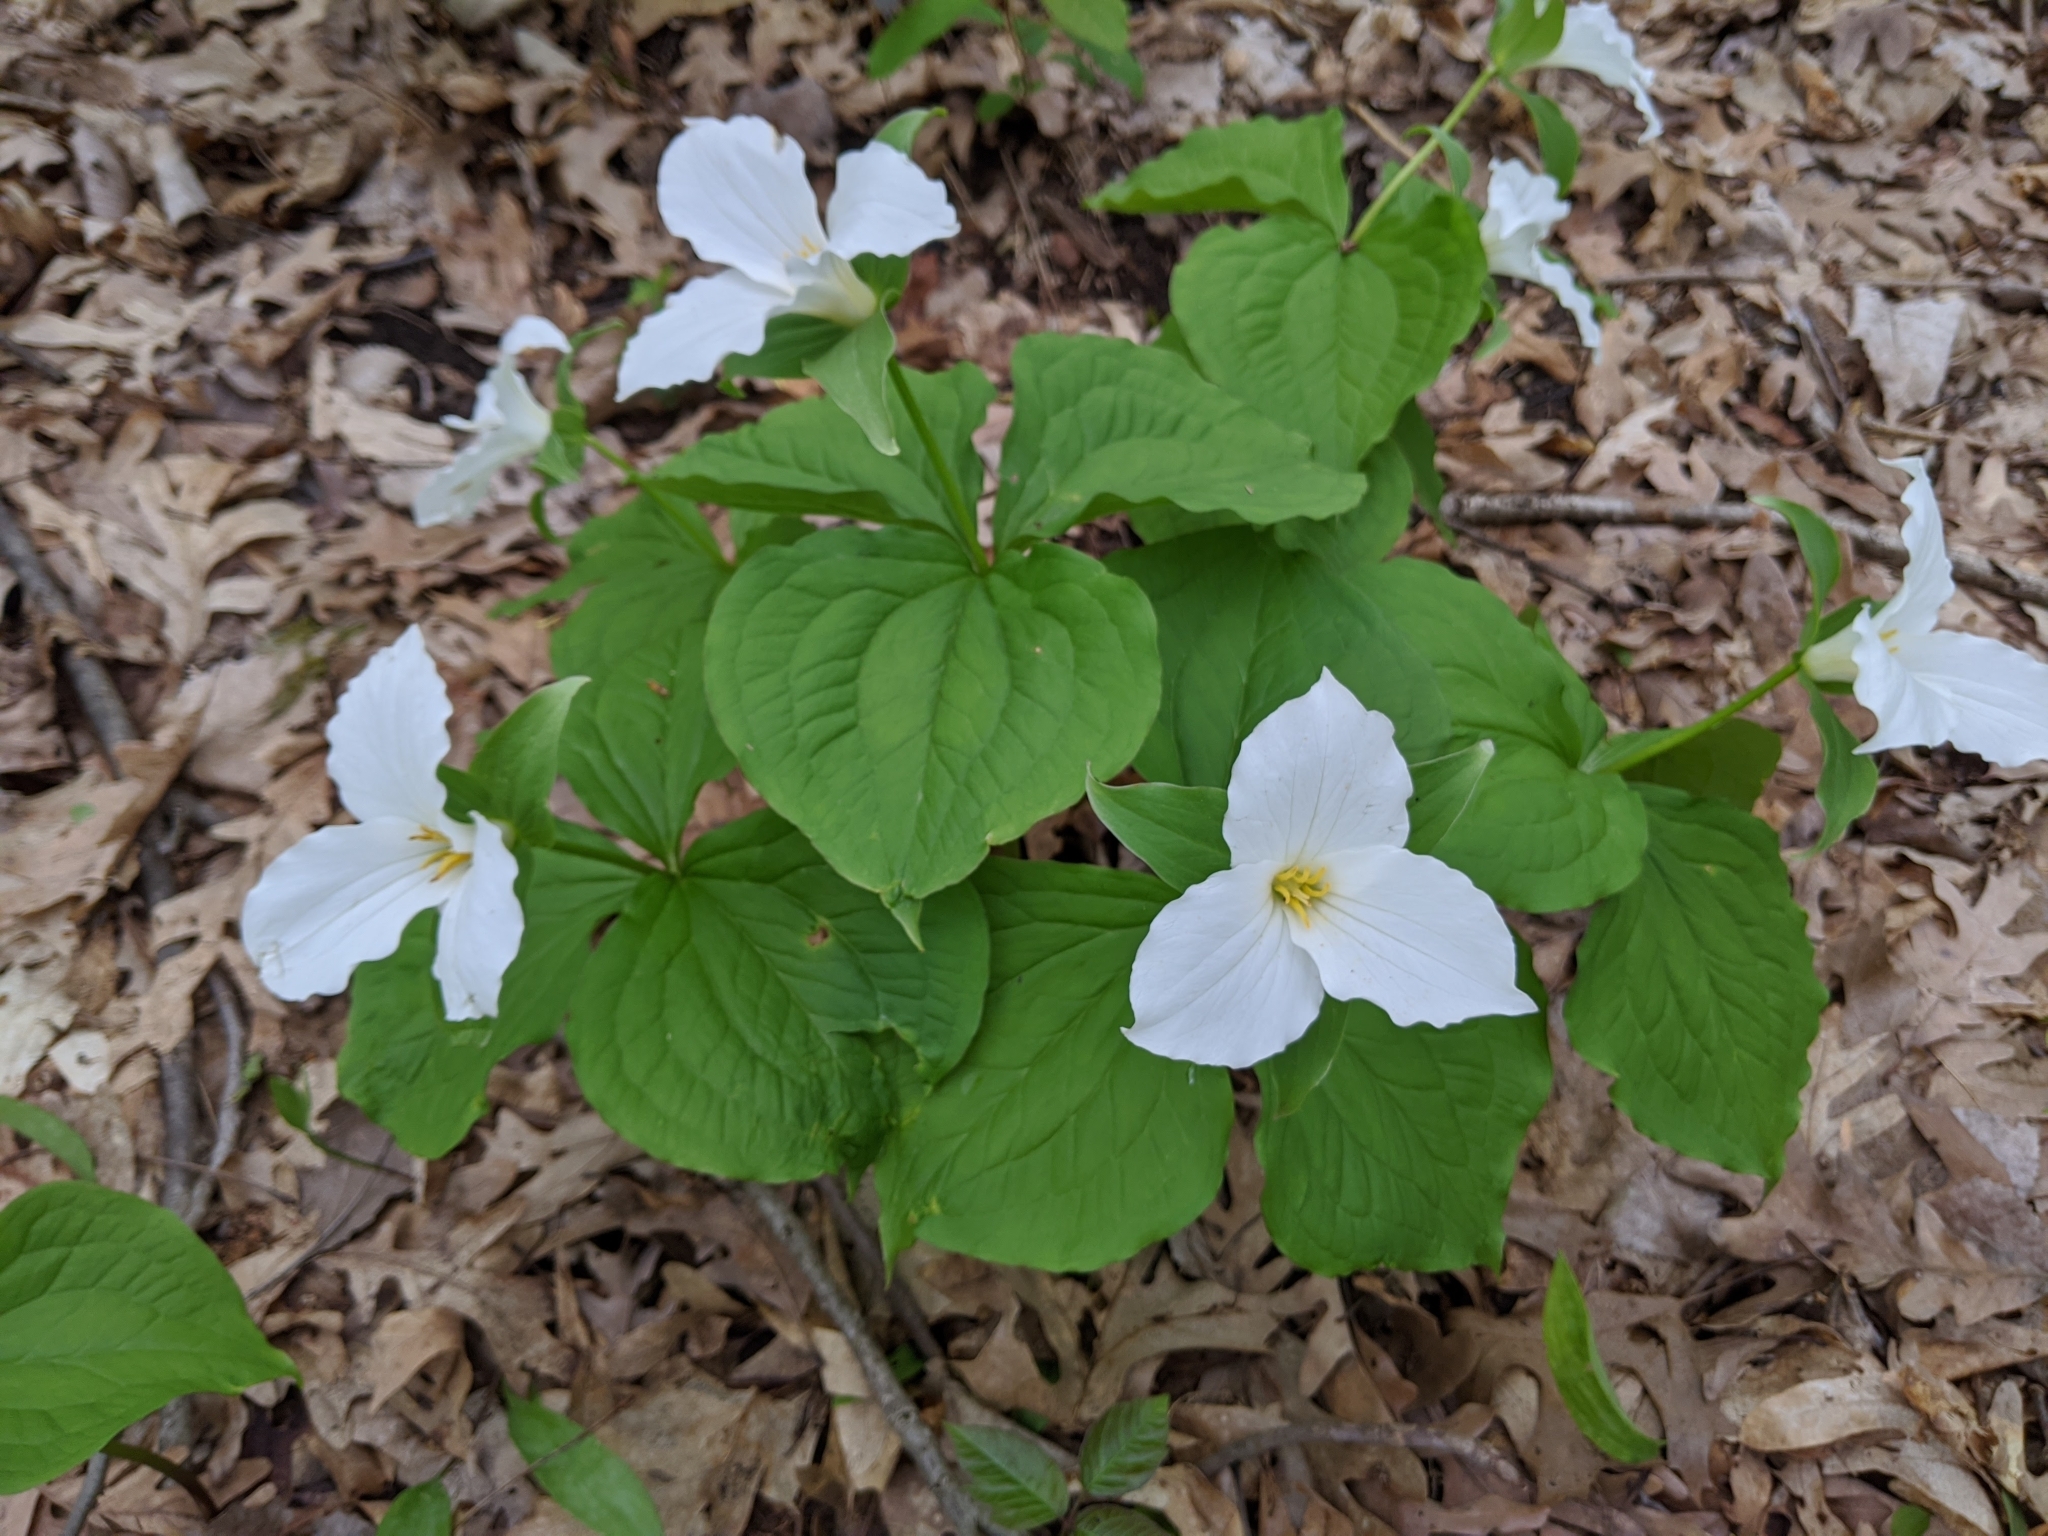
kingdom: Plantae
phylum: Tracheophyta
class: Liliopsida
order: Liliales
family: Melanthiaceae
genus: Trillium
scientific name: Trillium grandiflorum
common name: Great white trillium
